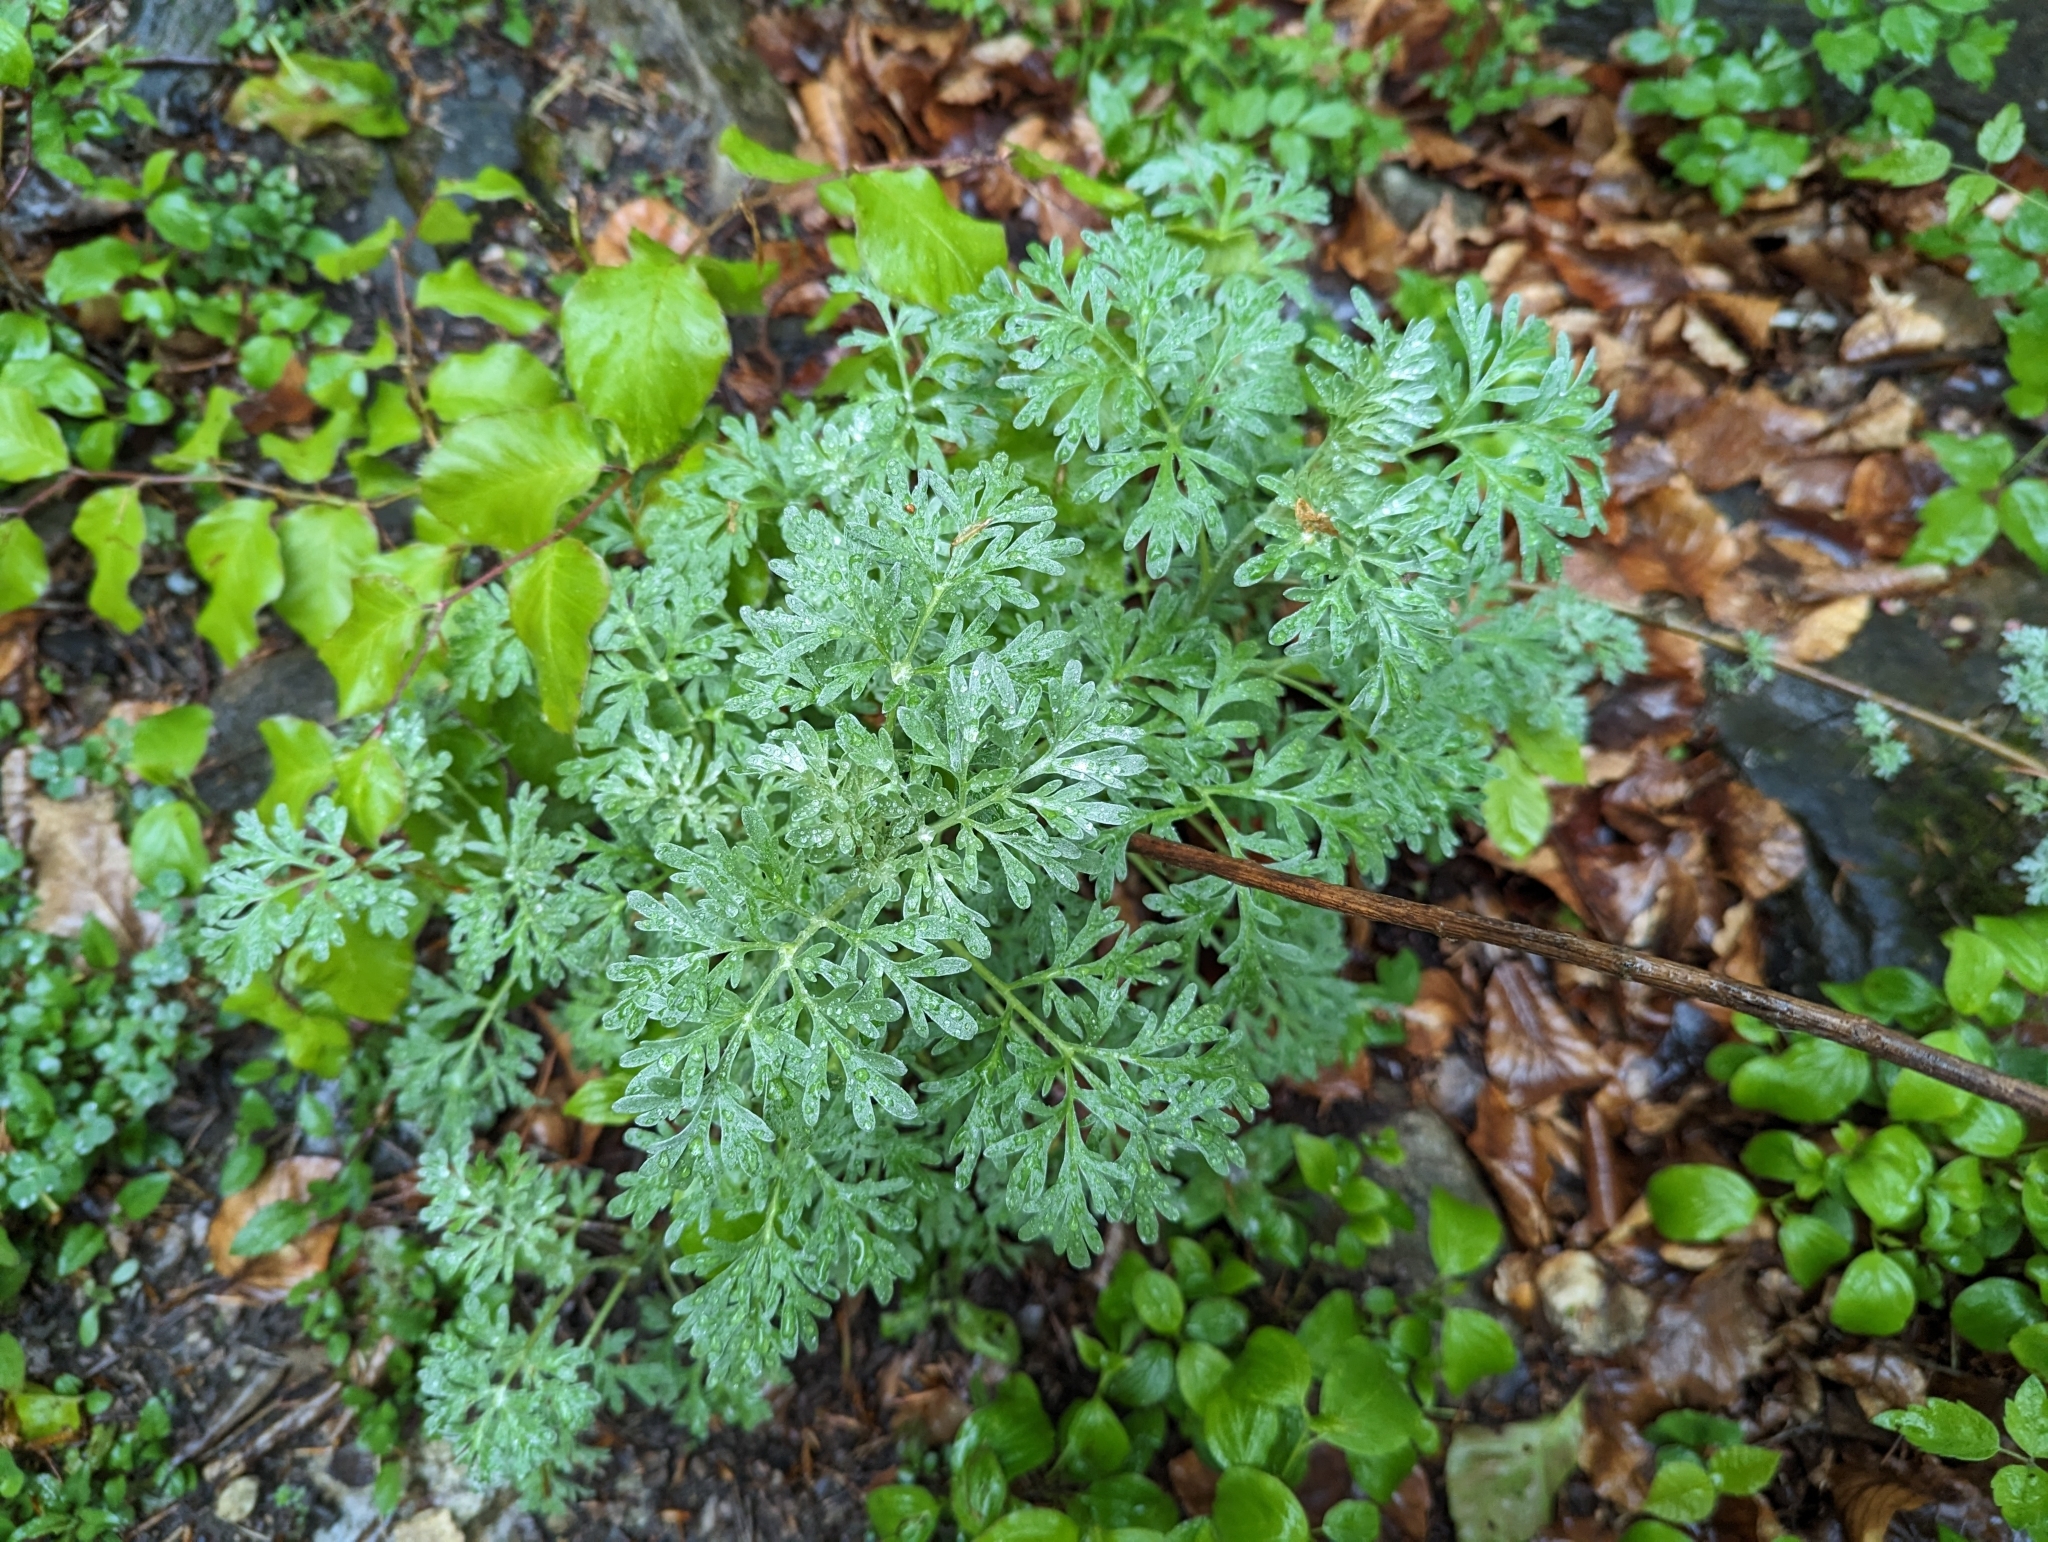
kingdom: Plantae
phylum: Tracheophyta
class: Magnoliopsida
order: Asterales
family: Asteraceae
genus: Artemisia
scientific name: Artemisia absinthium
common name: Wormwood
